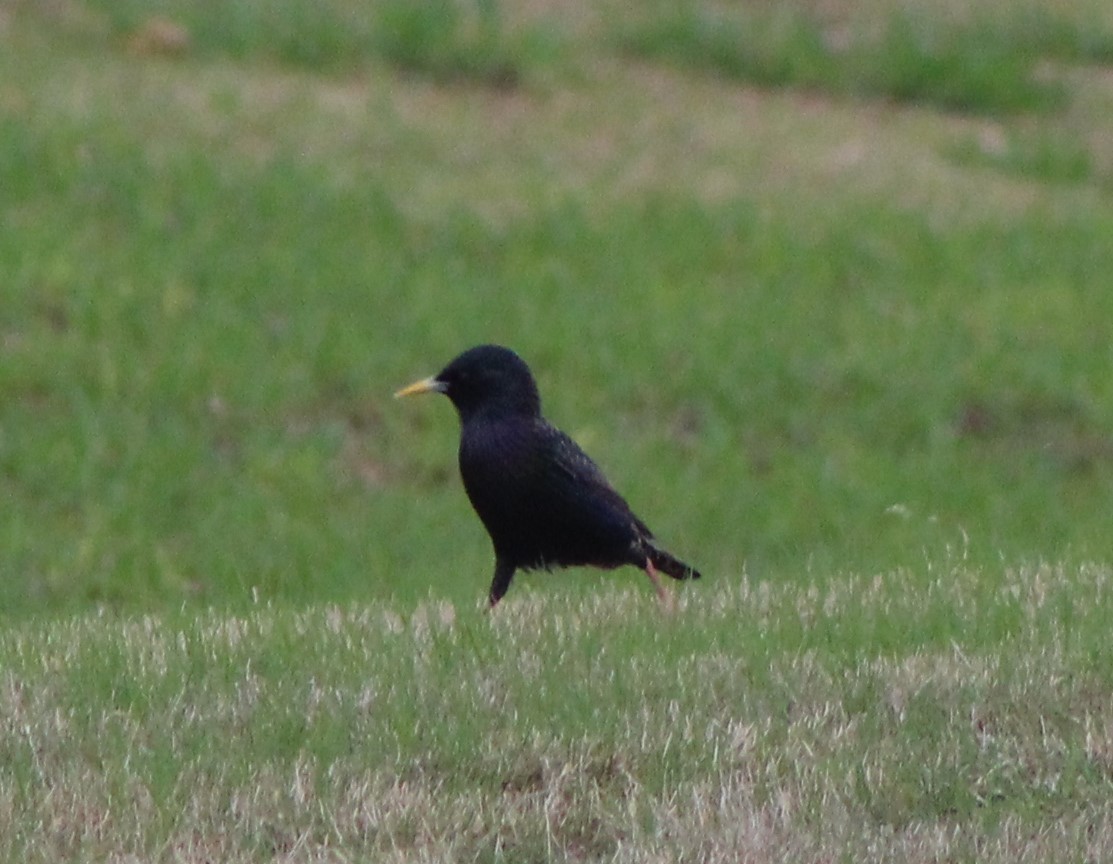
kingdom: Animalia
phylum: Chordata
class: Aves
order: Passeriformes
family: Sturnidae
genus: Sturnus
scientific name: Sturnus vulgaris
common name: Common starling
